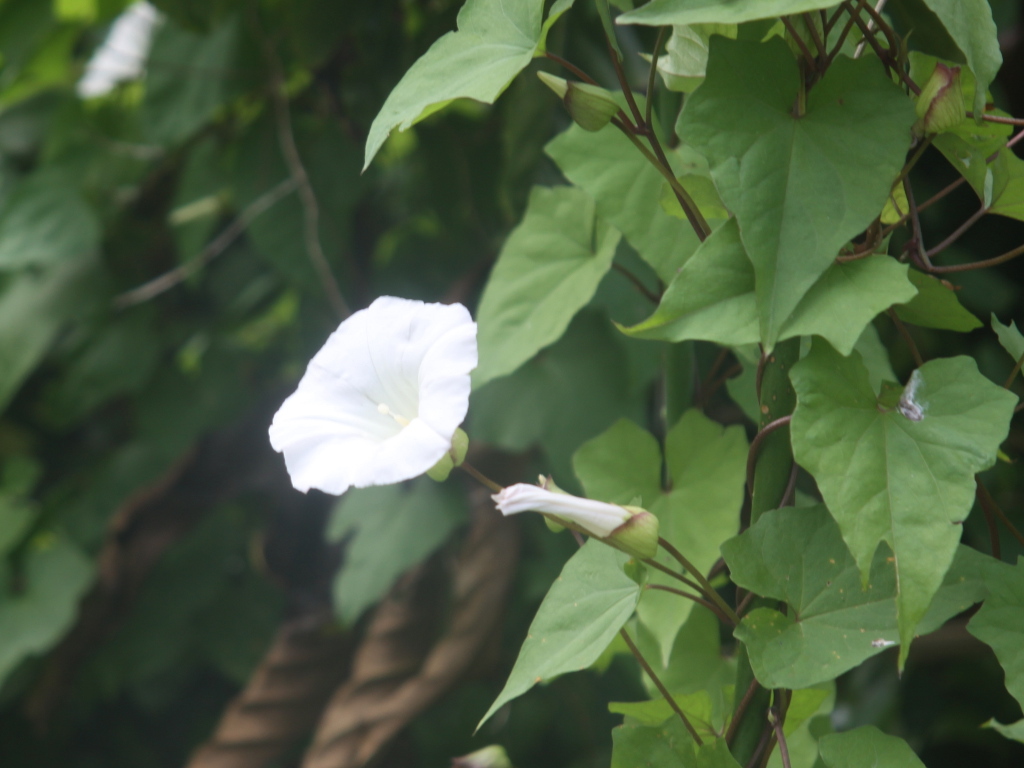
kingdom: Plantae
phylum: Tracheophyta
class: Magnoliopsida
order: Solanales
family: Convolvulaceae
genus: Calystegia
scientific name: Calystegia silvatica
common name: Large bindweed
